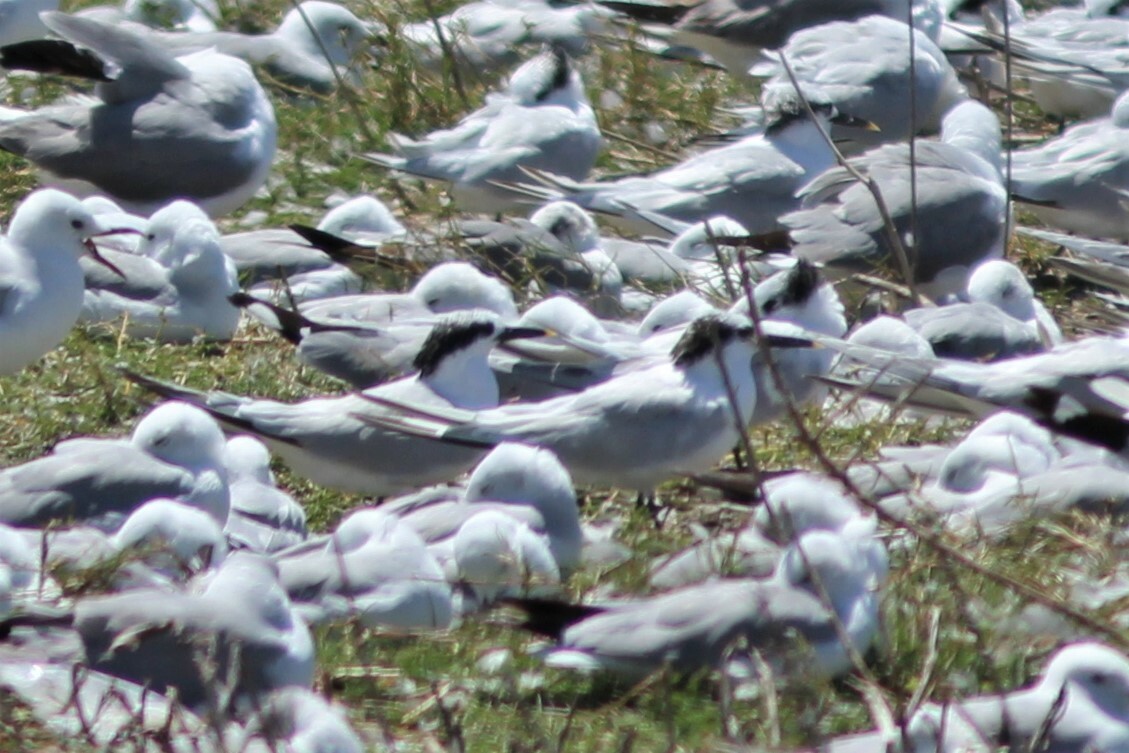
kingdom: Animalia
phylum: Chordata
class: Aves
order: Charadriiformes
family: Laridae
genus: Thalasseus
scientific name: Thalasseus sandvicensis
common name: Sandwich tern
